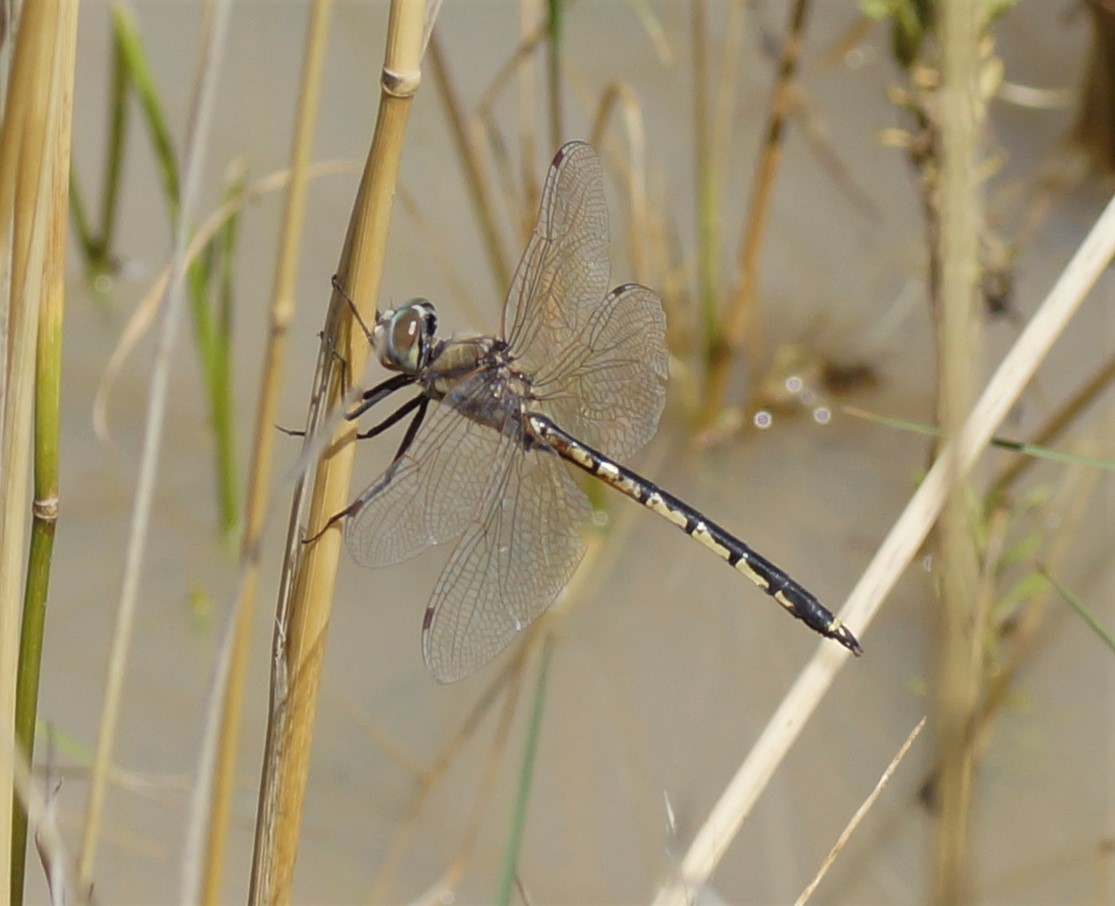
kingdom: Animalia
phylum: Arthropoda
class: Insecta
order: Odonata
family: Corduliidae
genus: Hemicordulia
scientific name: Hemicordulia tau
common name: Tau emerald
